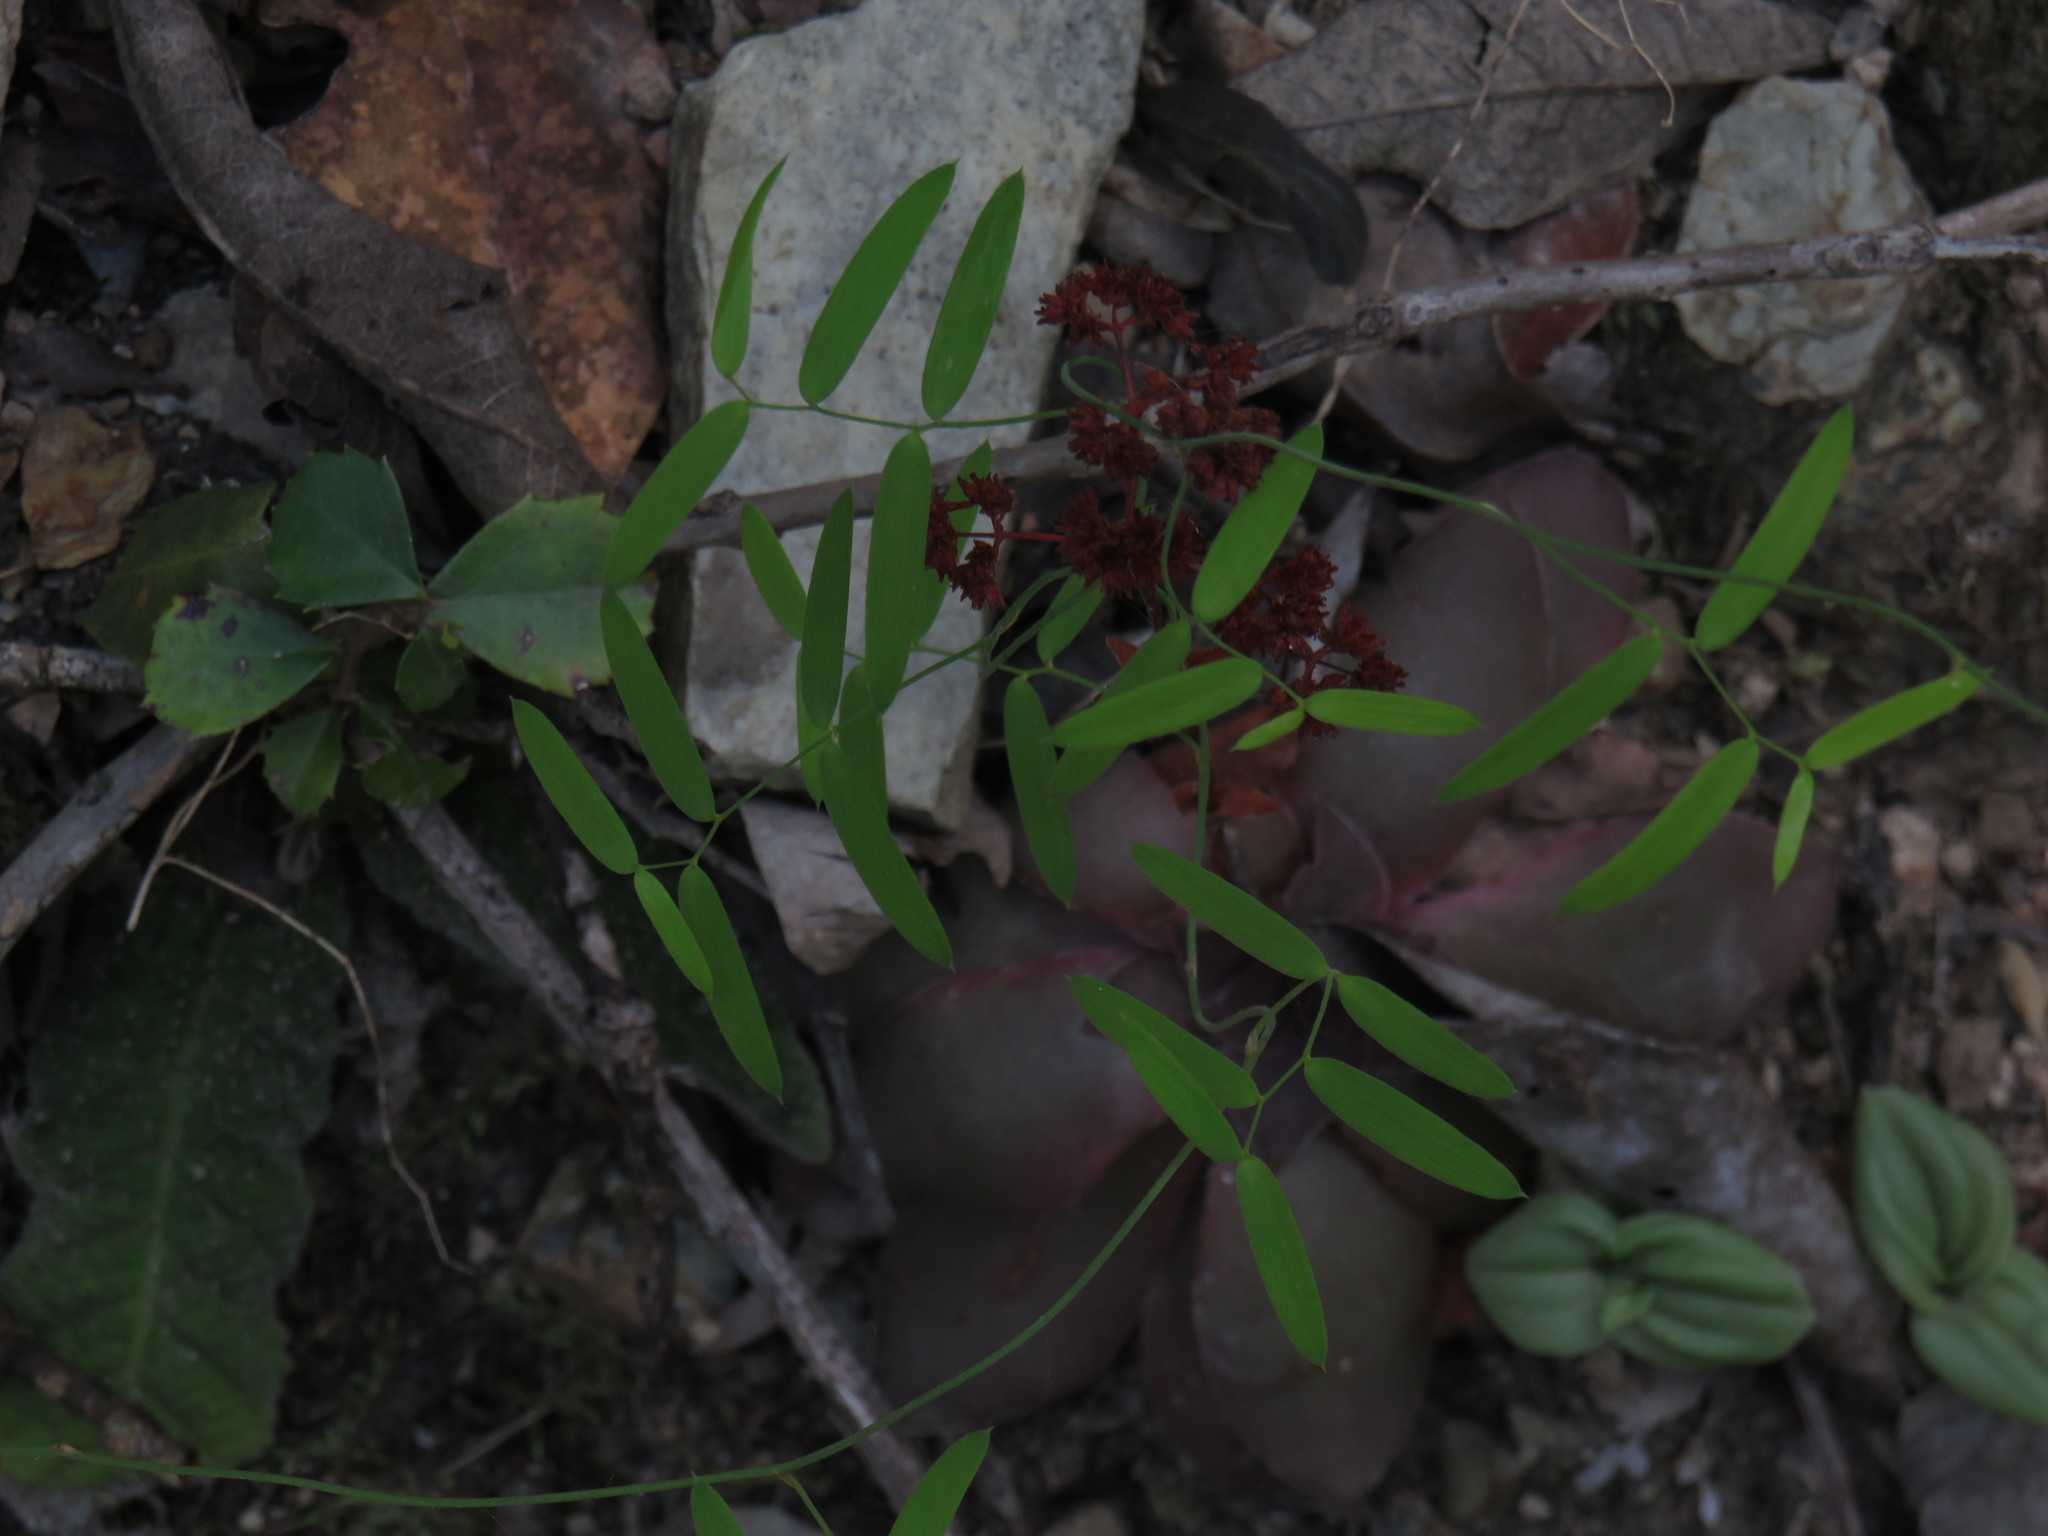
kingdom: Plantae
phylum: Tracheophyta
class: Liliopsida
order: Asparagales
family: Asparagaceae
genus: Asparagus
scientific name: Asparagus volubilis
